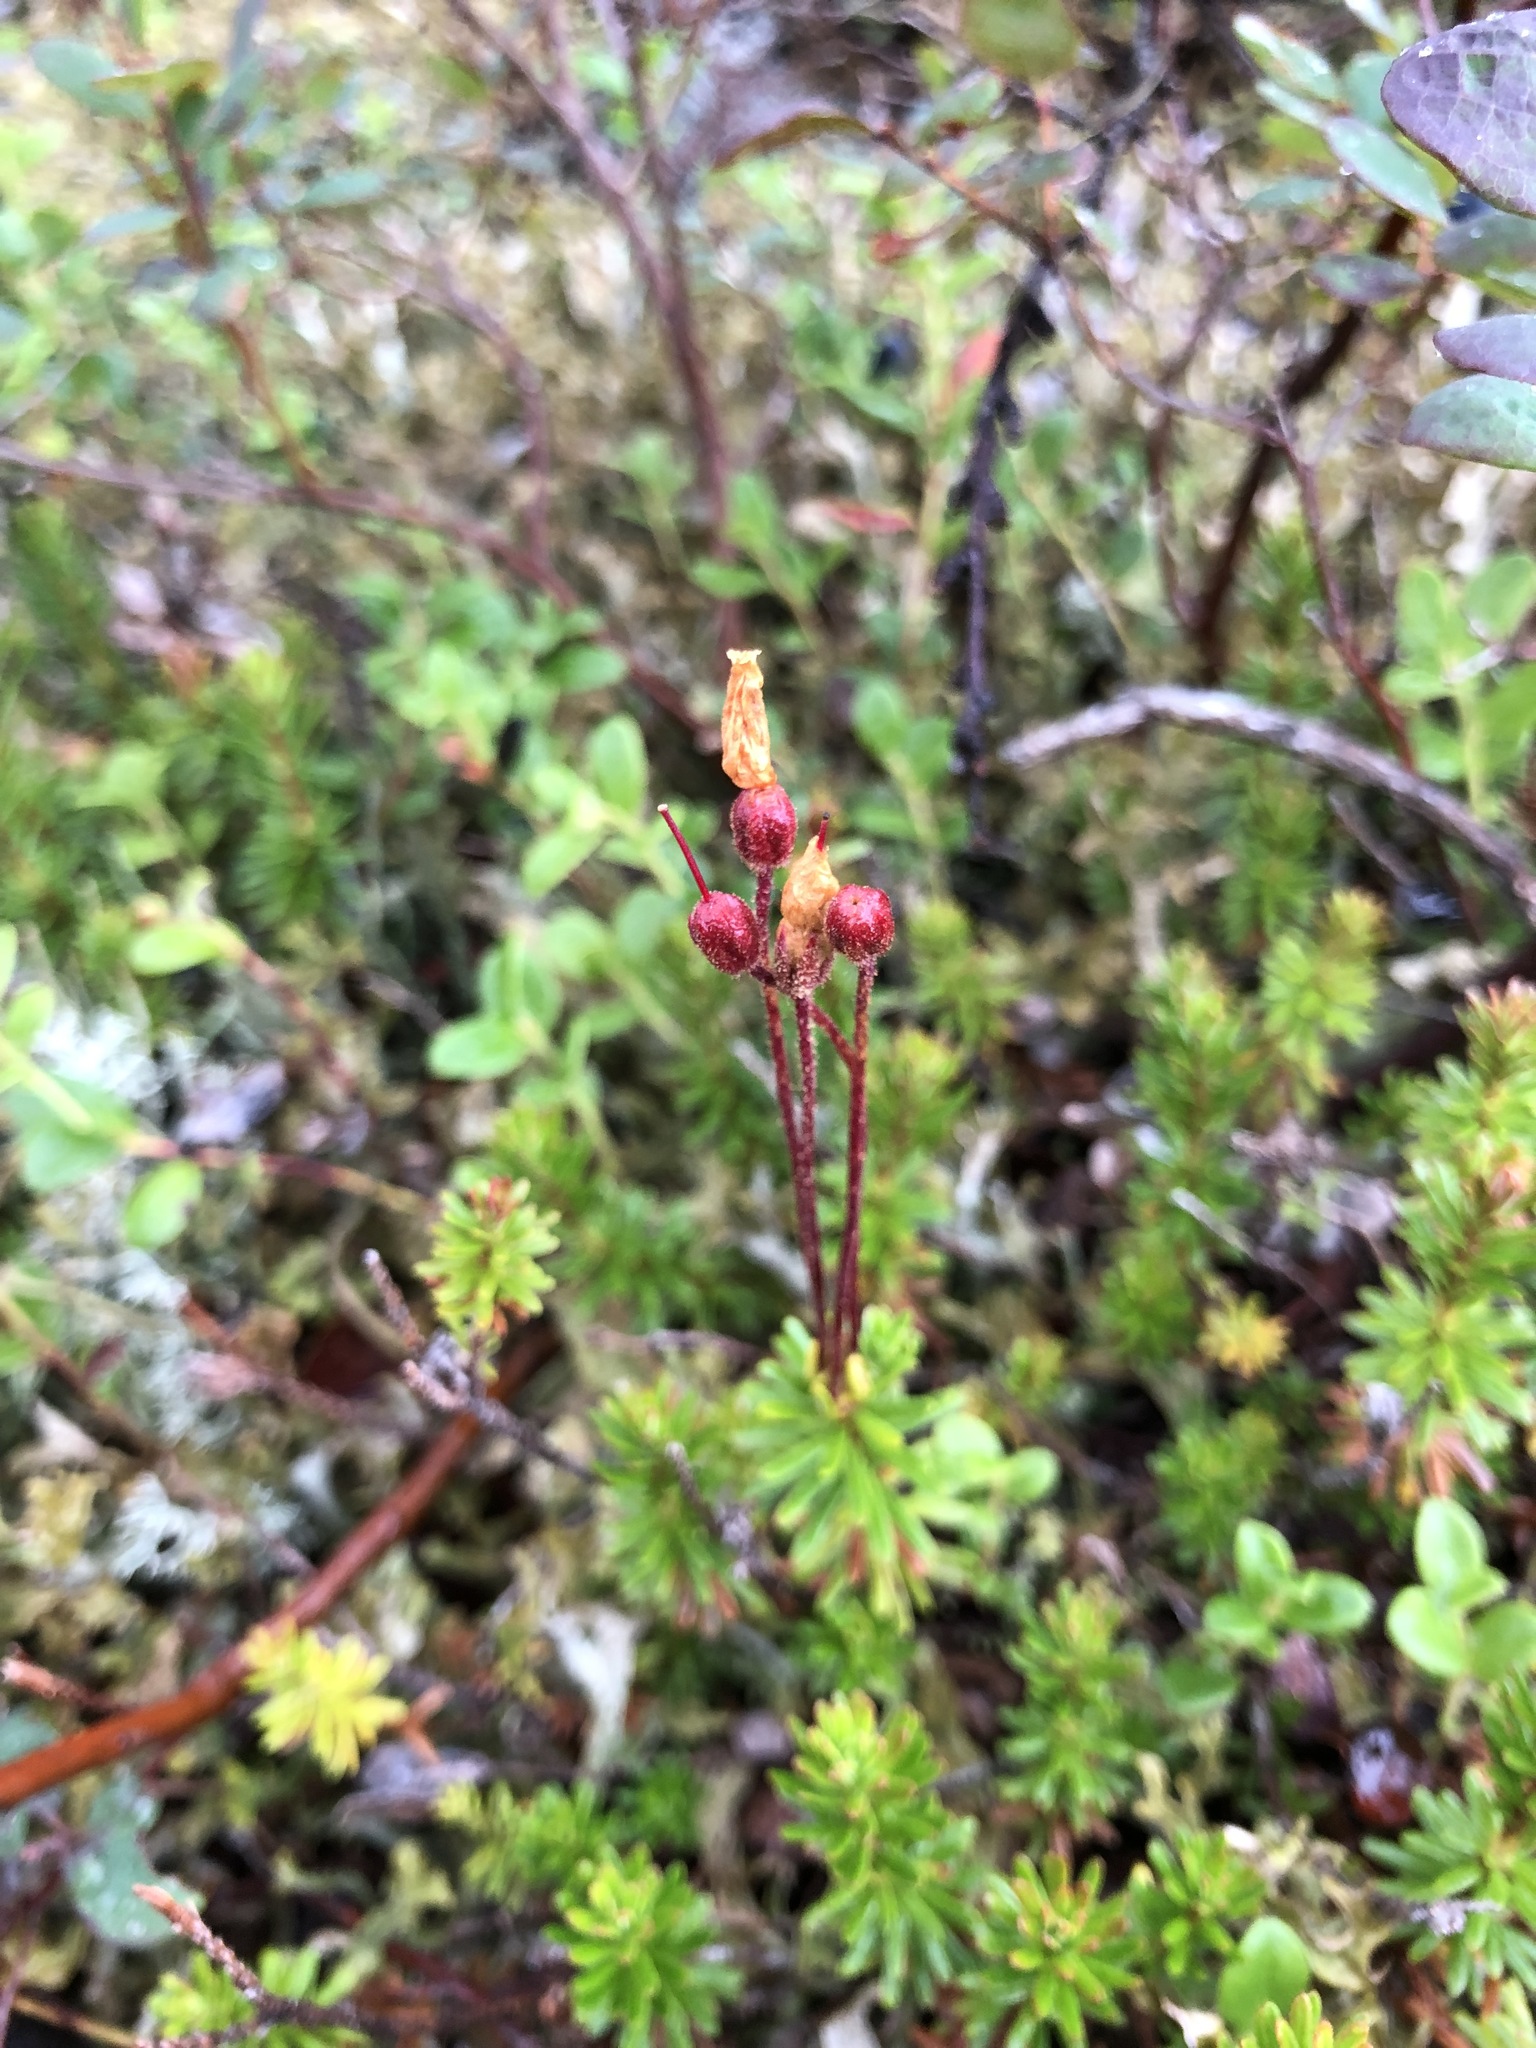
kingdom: Plantae
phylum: Tracheophyta
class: Magnoliopsida
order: Ericales
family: Ericaceae
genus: Phyllodoce
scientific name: Phyllodoce caerulea
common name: Blue heath
